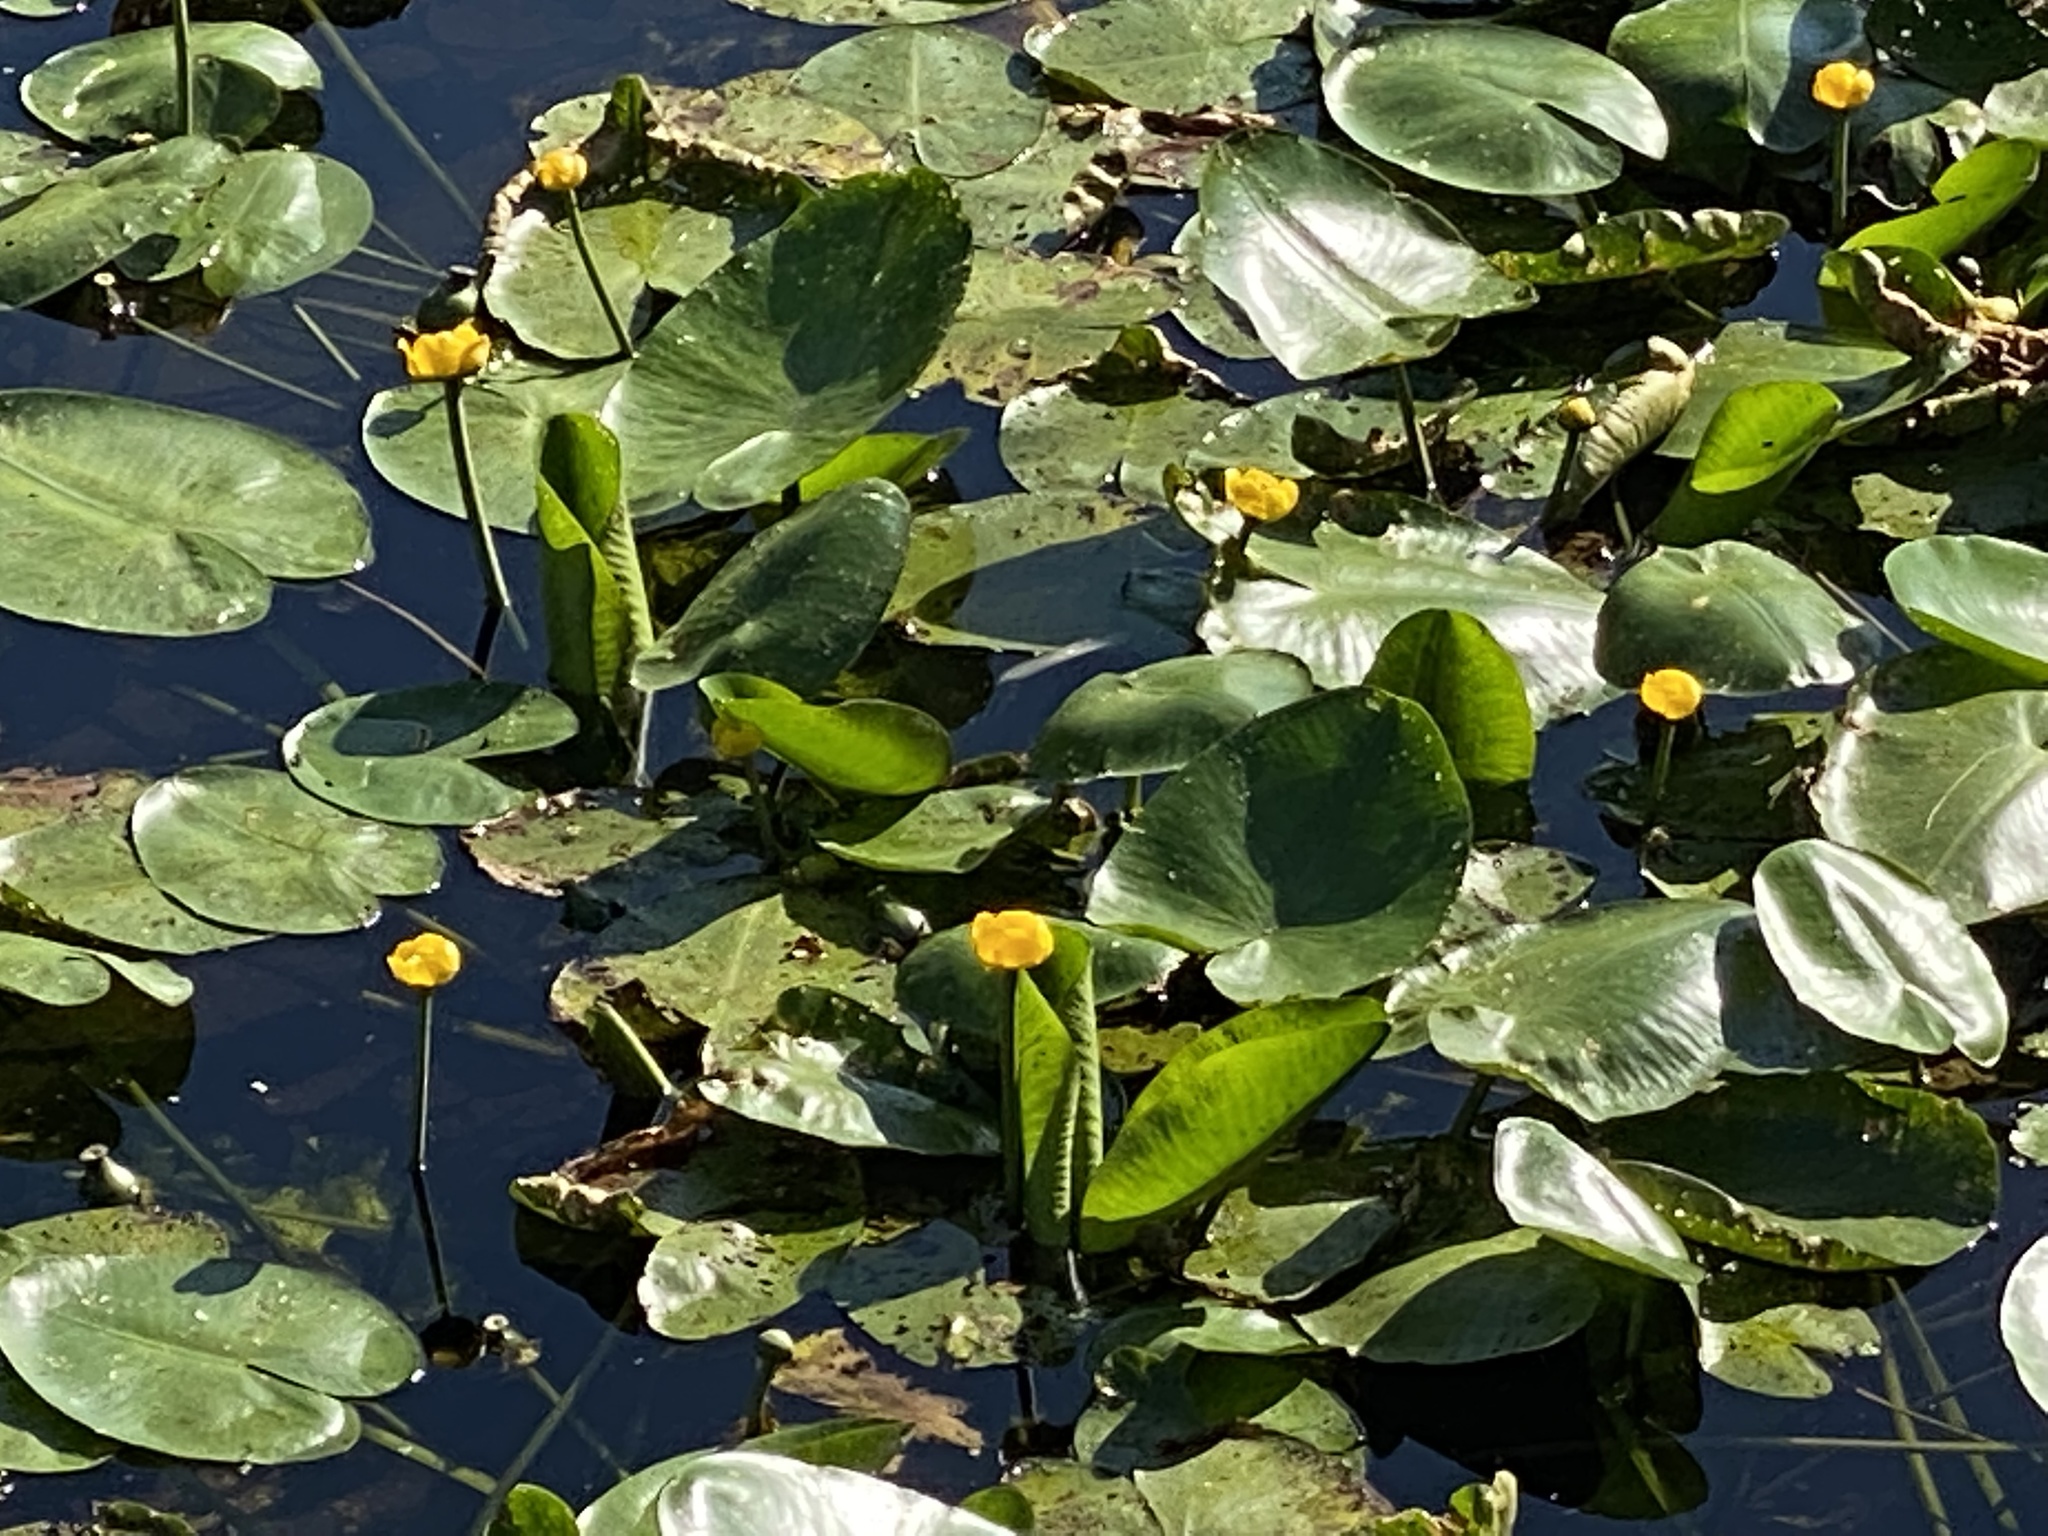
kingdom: Plantae
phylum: Tracheophyta
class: Magnoliopsida
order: Nymphaeales
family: Nymphaeaceae
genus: Nuphar
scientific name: Nuphar lutea
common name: Yellow water-lily
